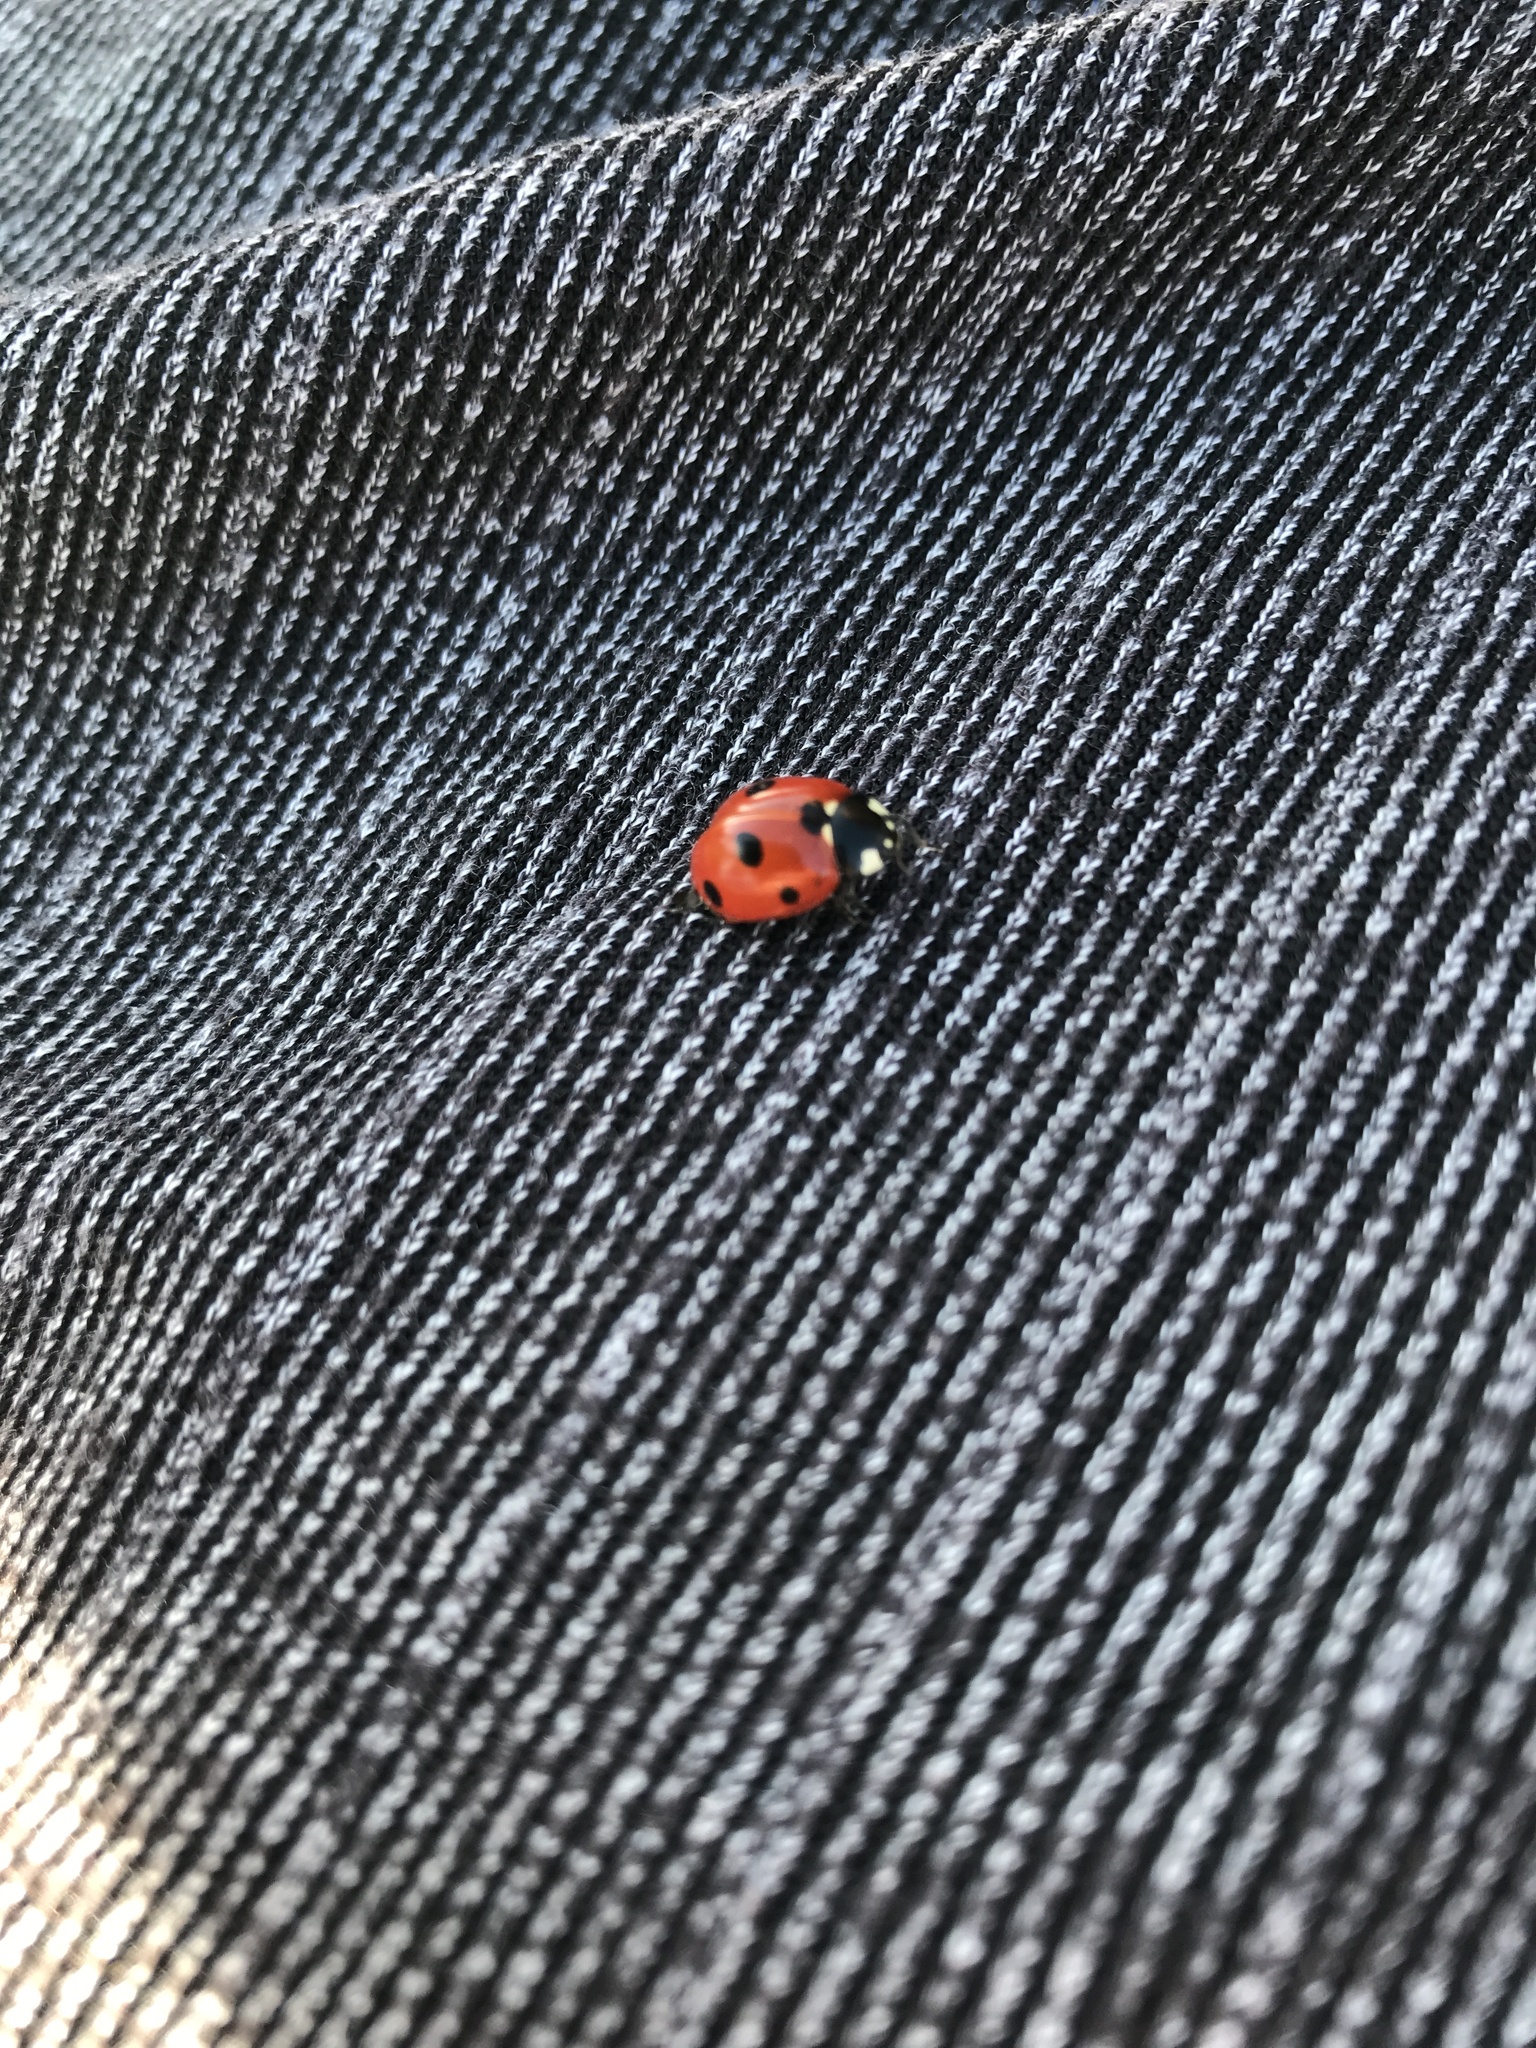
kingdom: Animalia
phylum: Arthropoda
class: Insecta
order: Coleoptera
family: Coccinellidae
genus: Coccinella
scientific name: Coccinella septempunctata
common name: Sevenspotted lady beetle
